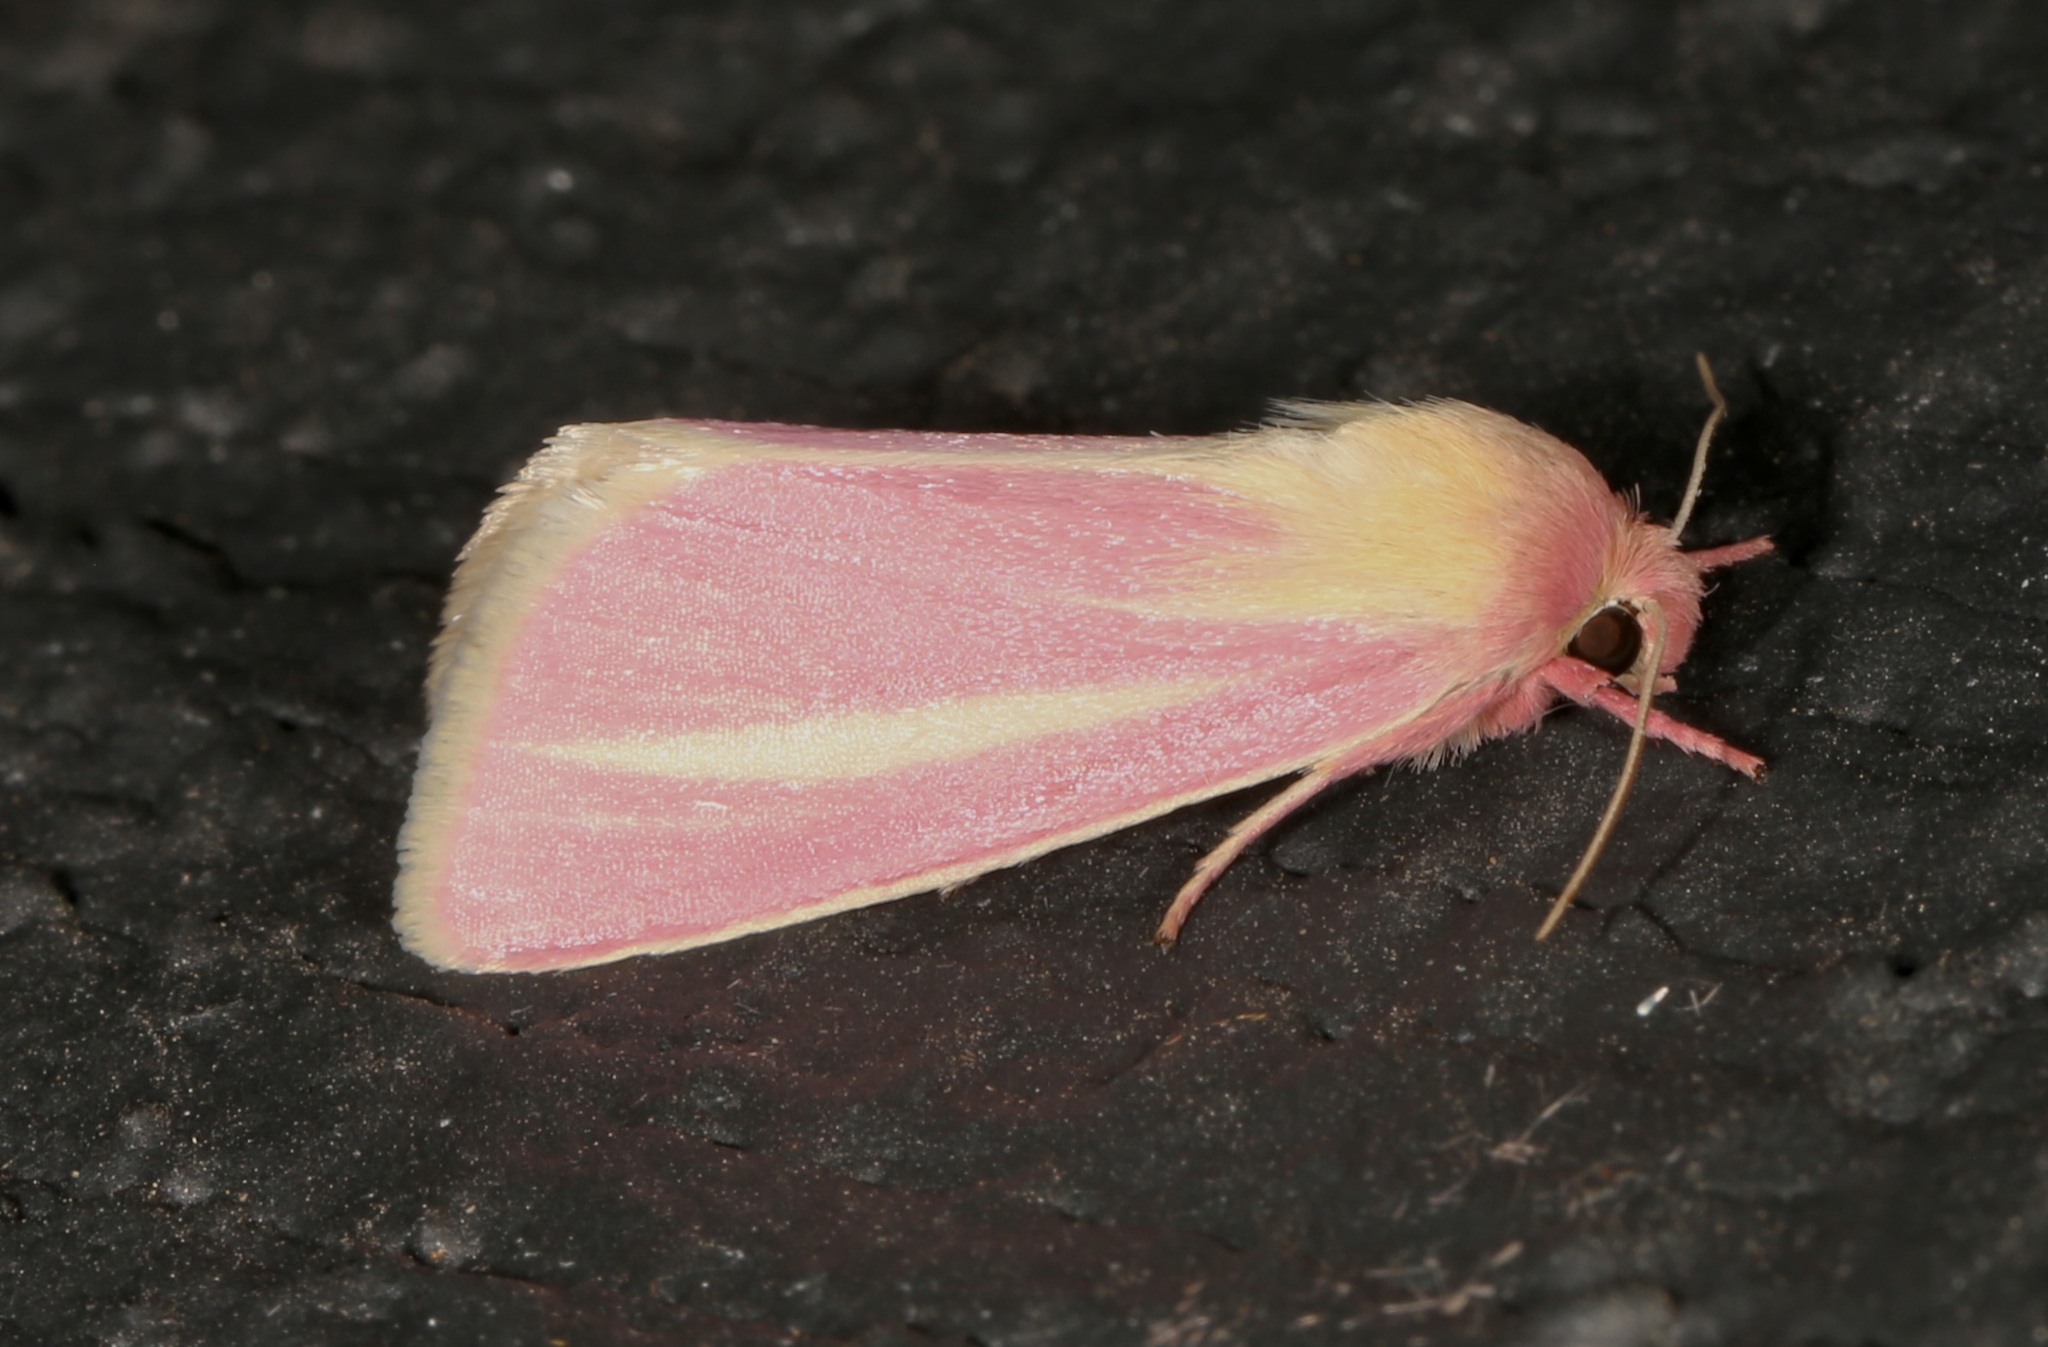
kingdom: Animalia
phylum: Arthropoda
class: Insecta
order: Lepidoptera
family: Noctuidae
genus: Heliocheilus
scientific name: Heliocheilus julia
